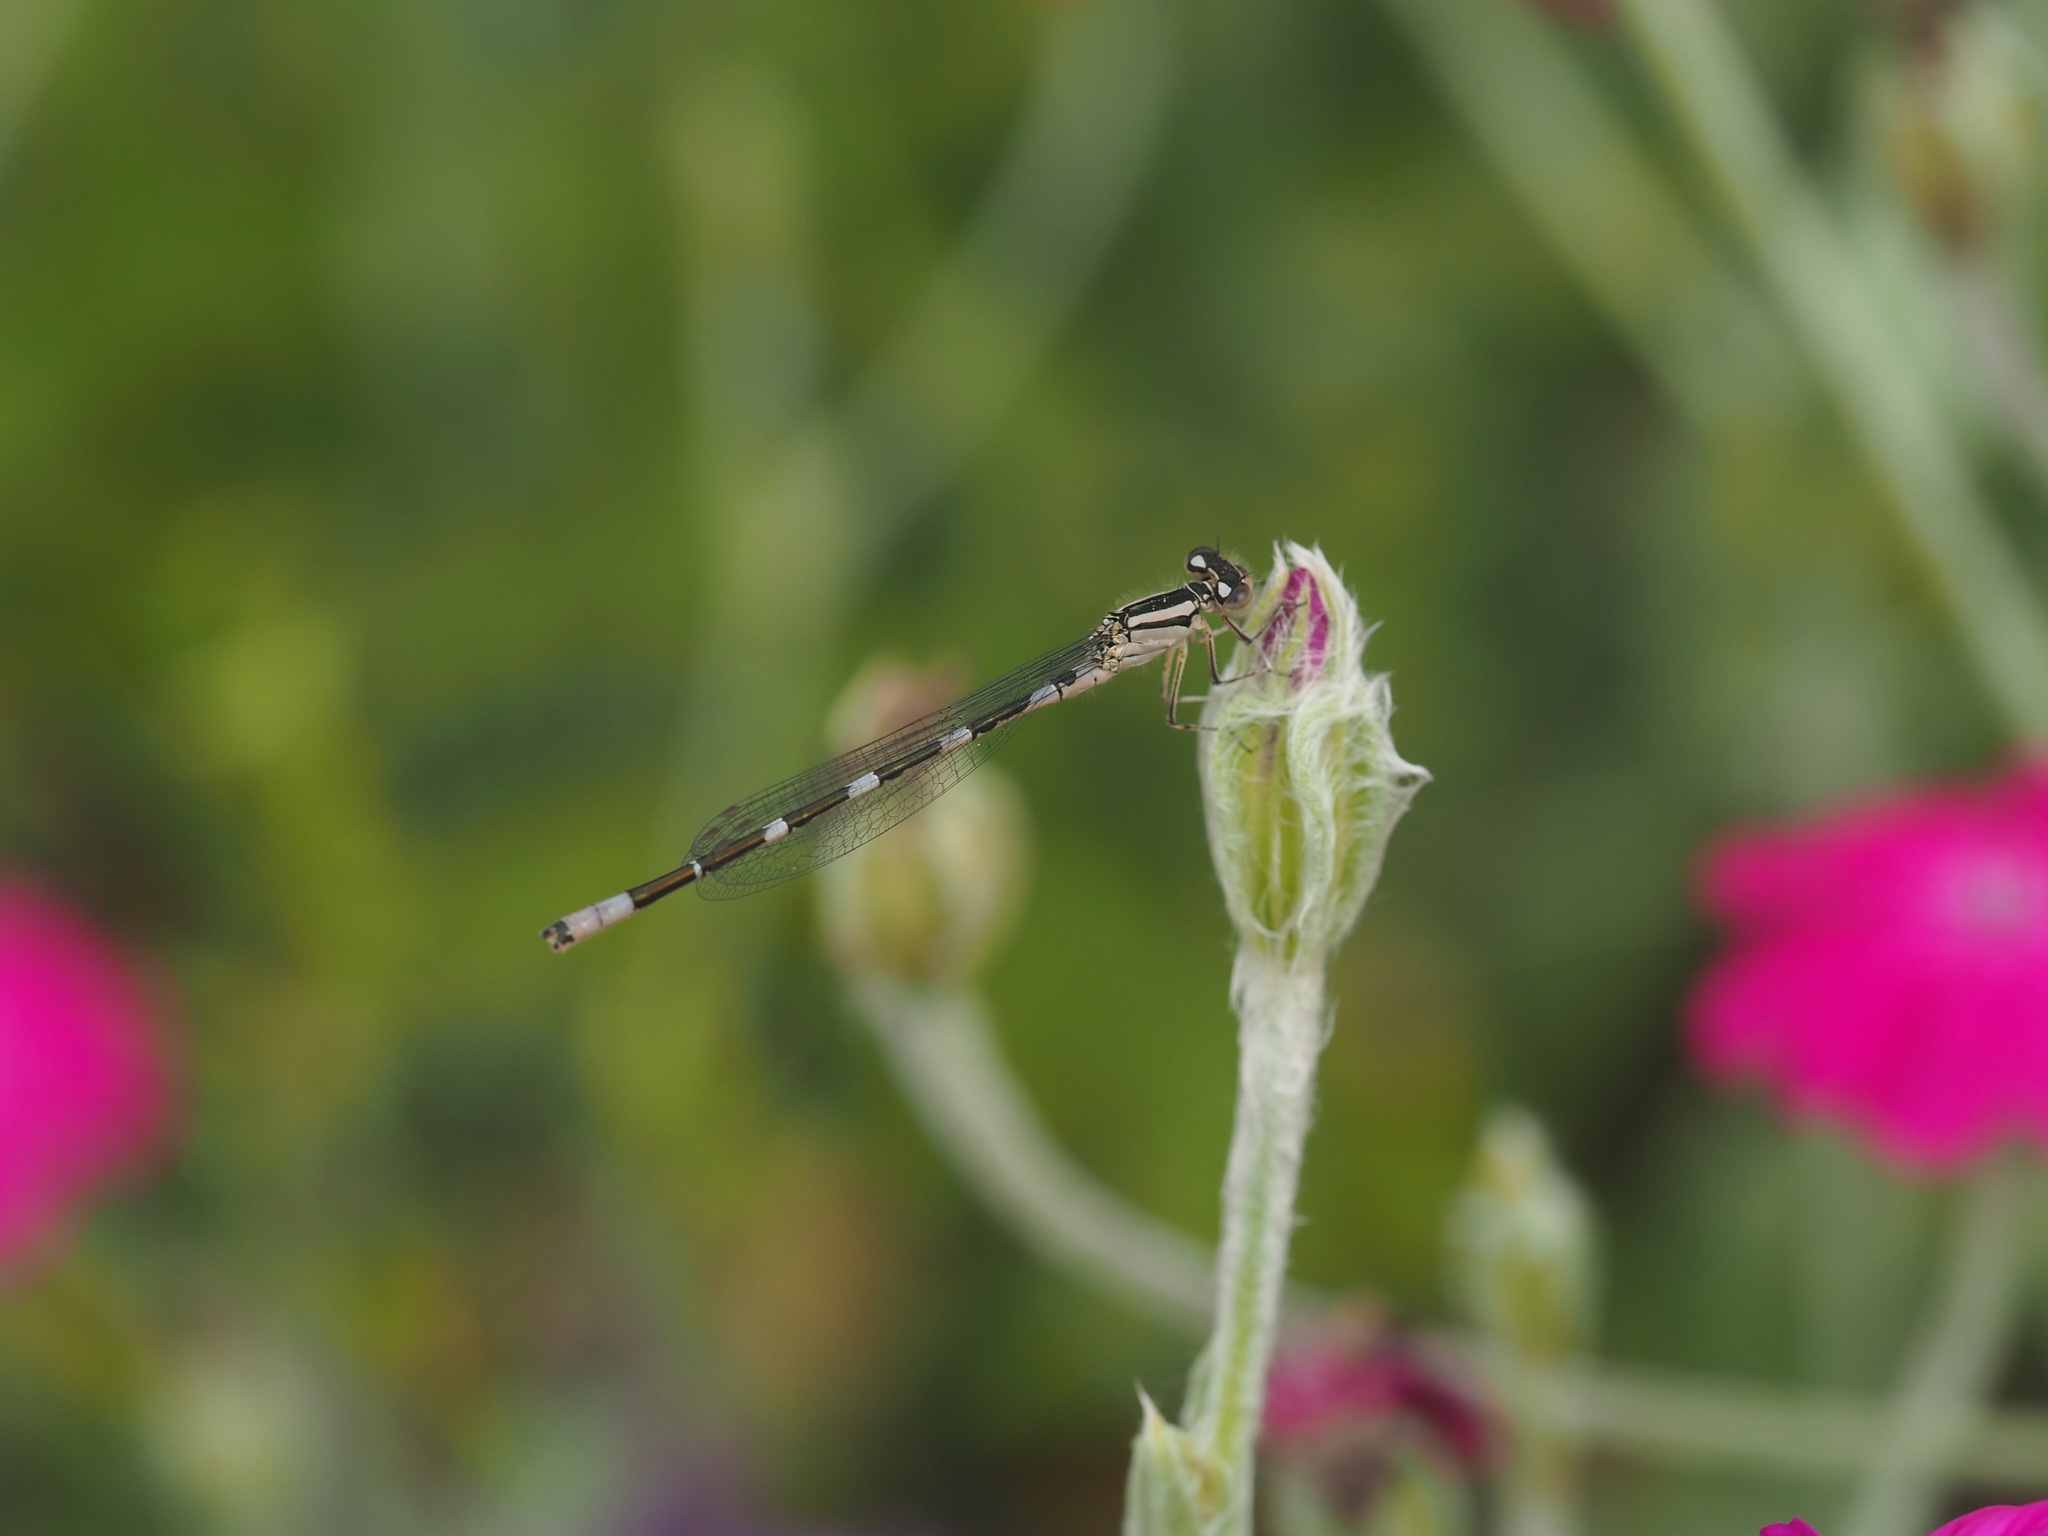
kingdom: Animalia
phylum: Arthropoda
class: Insecta
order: Odonata
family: Coenagrionidae
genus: Enallagma
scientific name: Enallagma carunculatum
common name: Tule bluet
